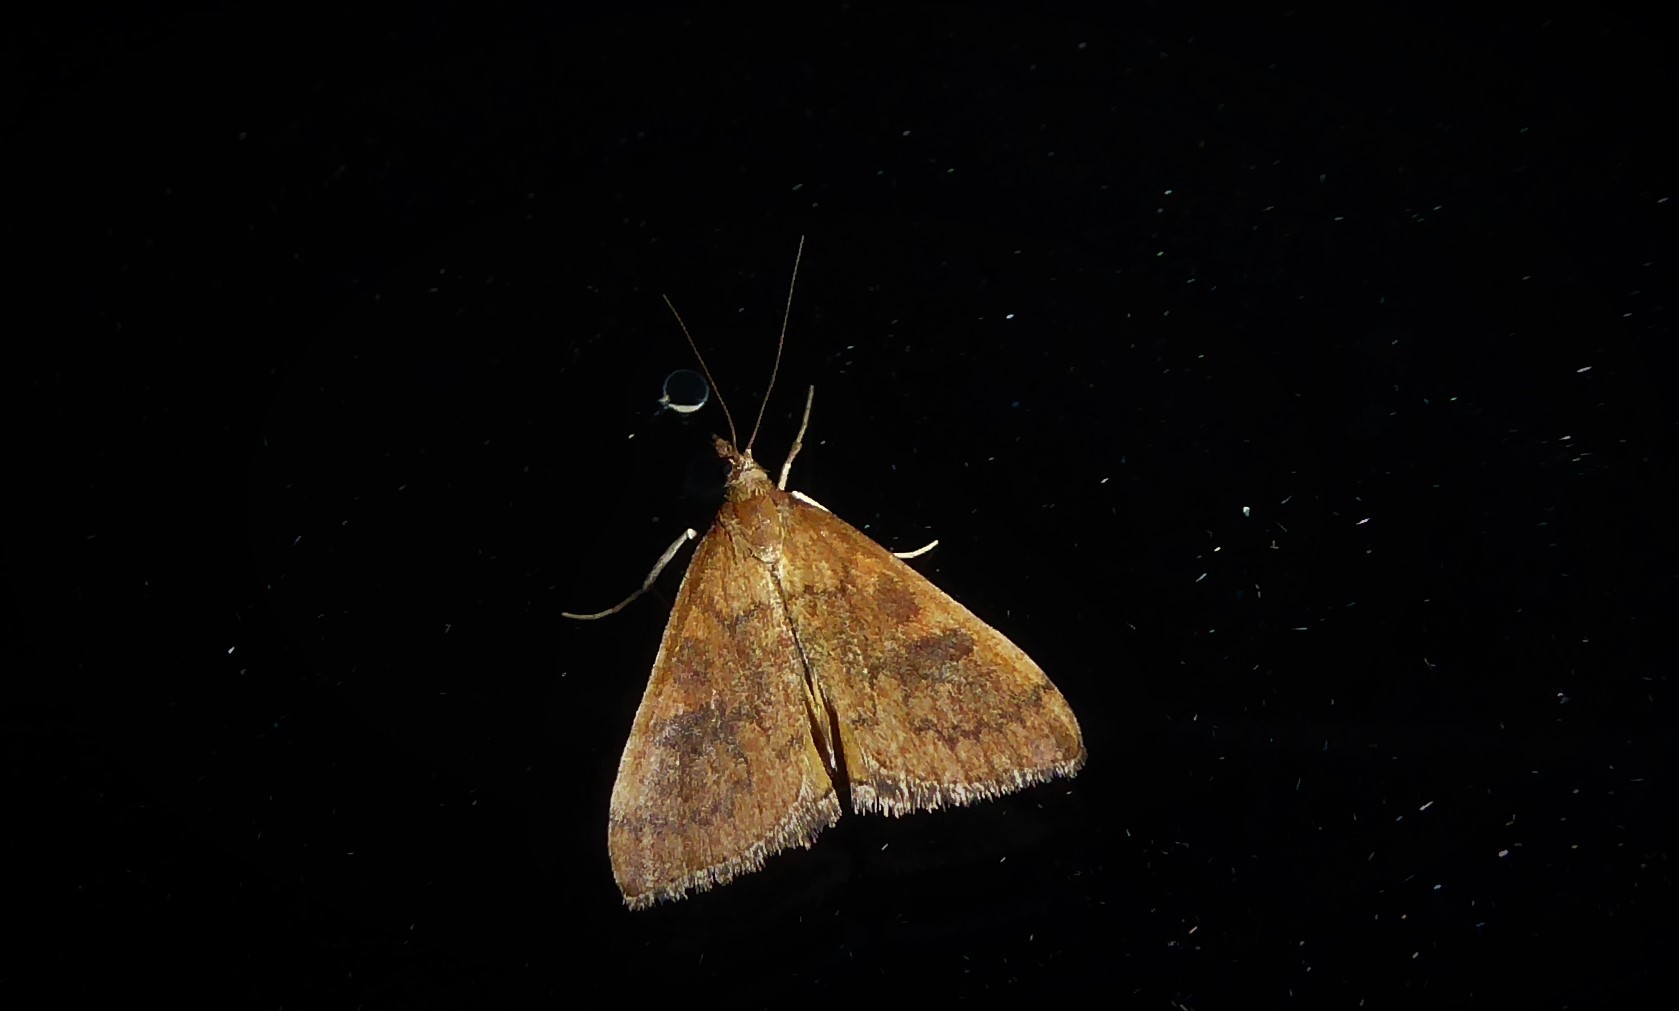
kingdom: Animalia
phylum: Arthropoda
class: Insecta
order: Lepidoptera
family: Crambidae
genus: Udea
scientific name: Udea Mnesictena flavidalis
